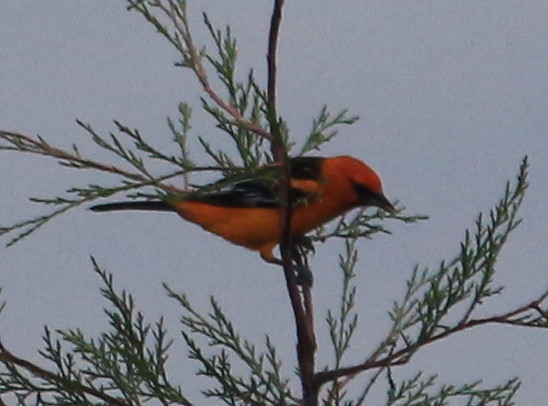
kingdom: Animalia
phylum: Chordata
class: Aves
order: Passeriformes
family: Icteridae
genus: Icterus
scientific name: Icterus gularis
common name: Altamira oriole
